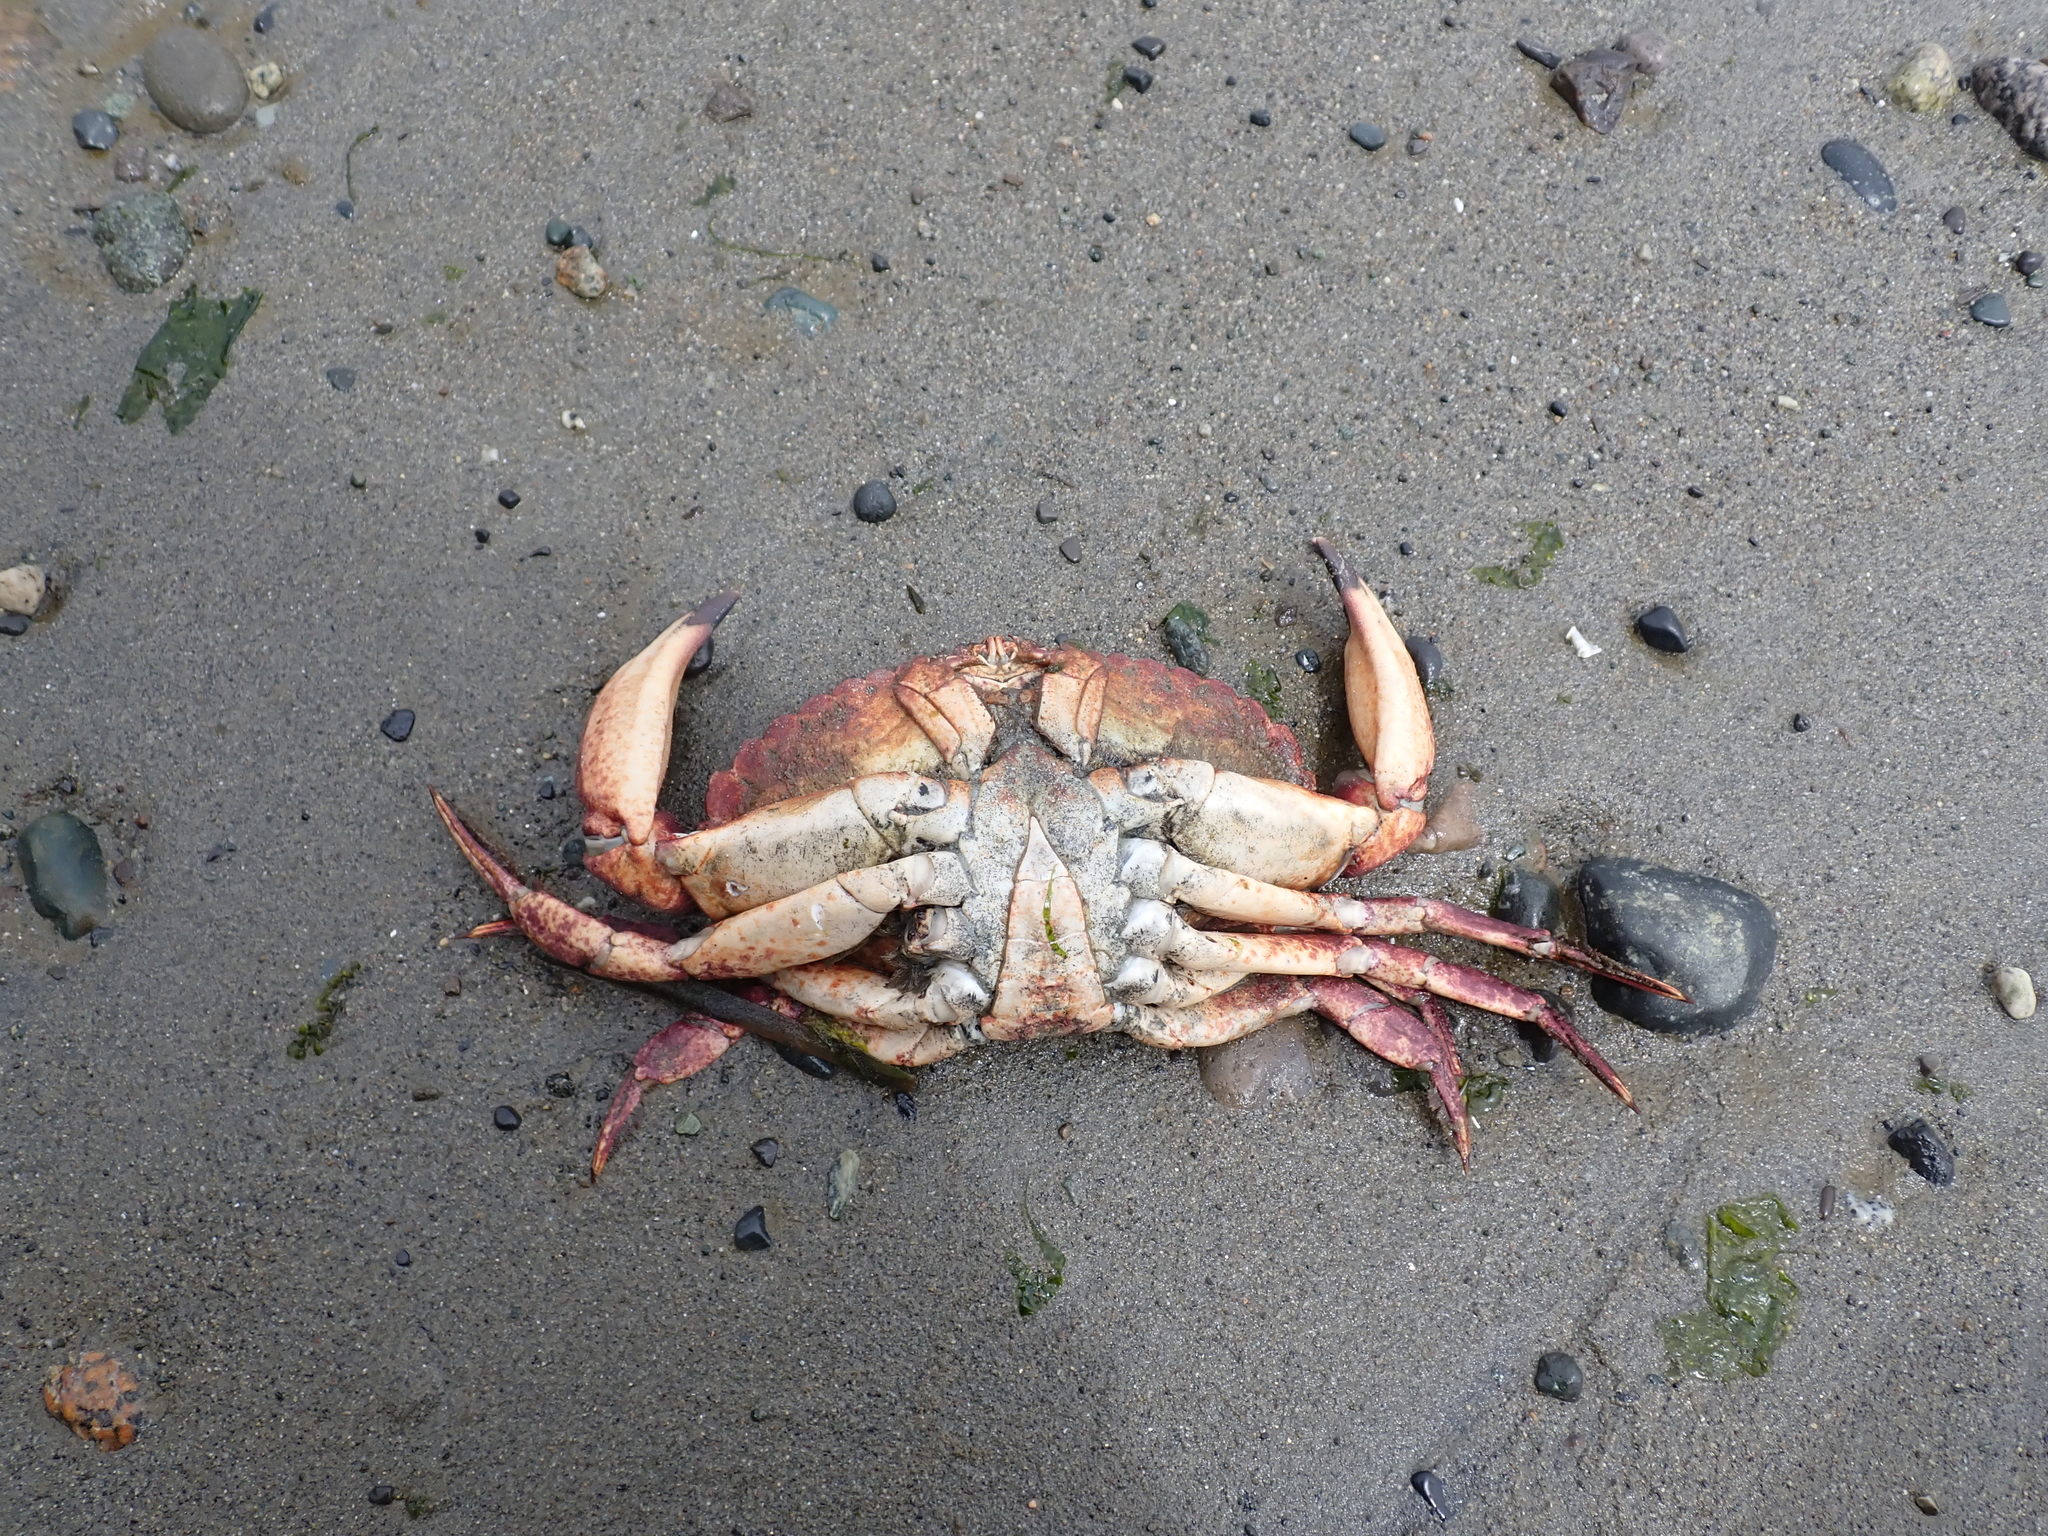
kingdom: Animalia
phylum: Arthropoda
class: Malacostraca
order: Decapoda
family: Cancridae
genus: Cancer
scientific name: Cancer productus
